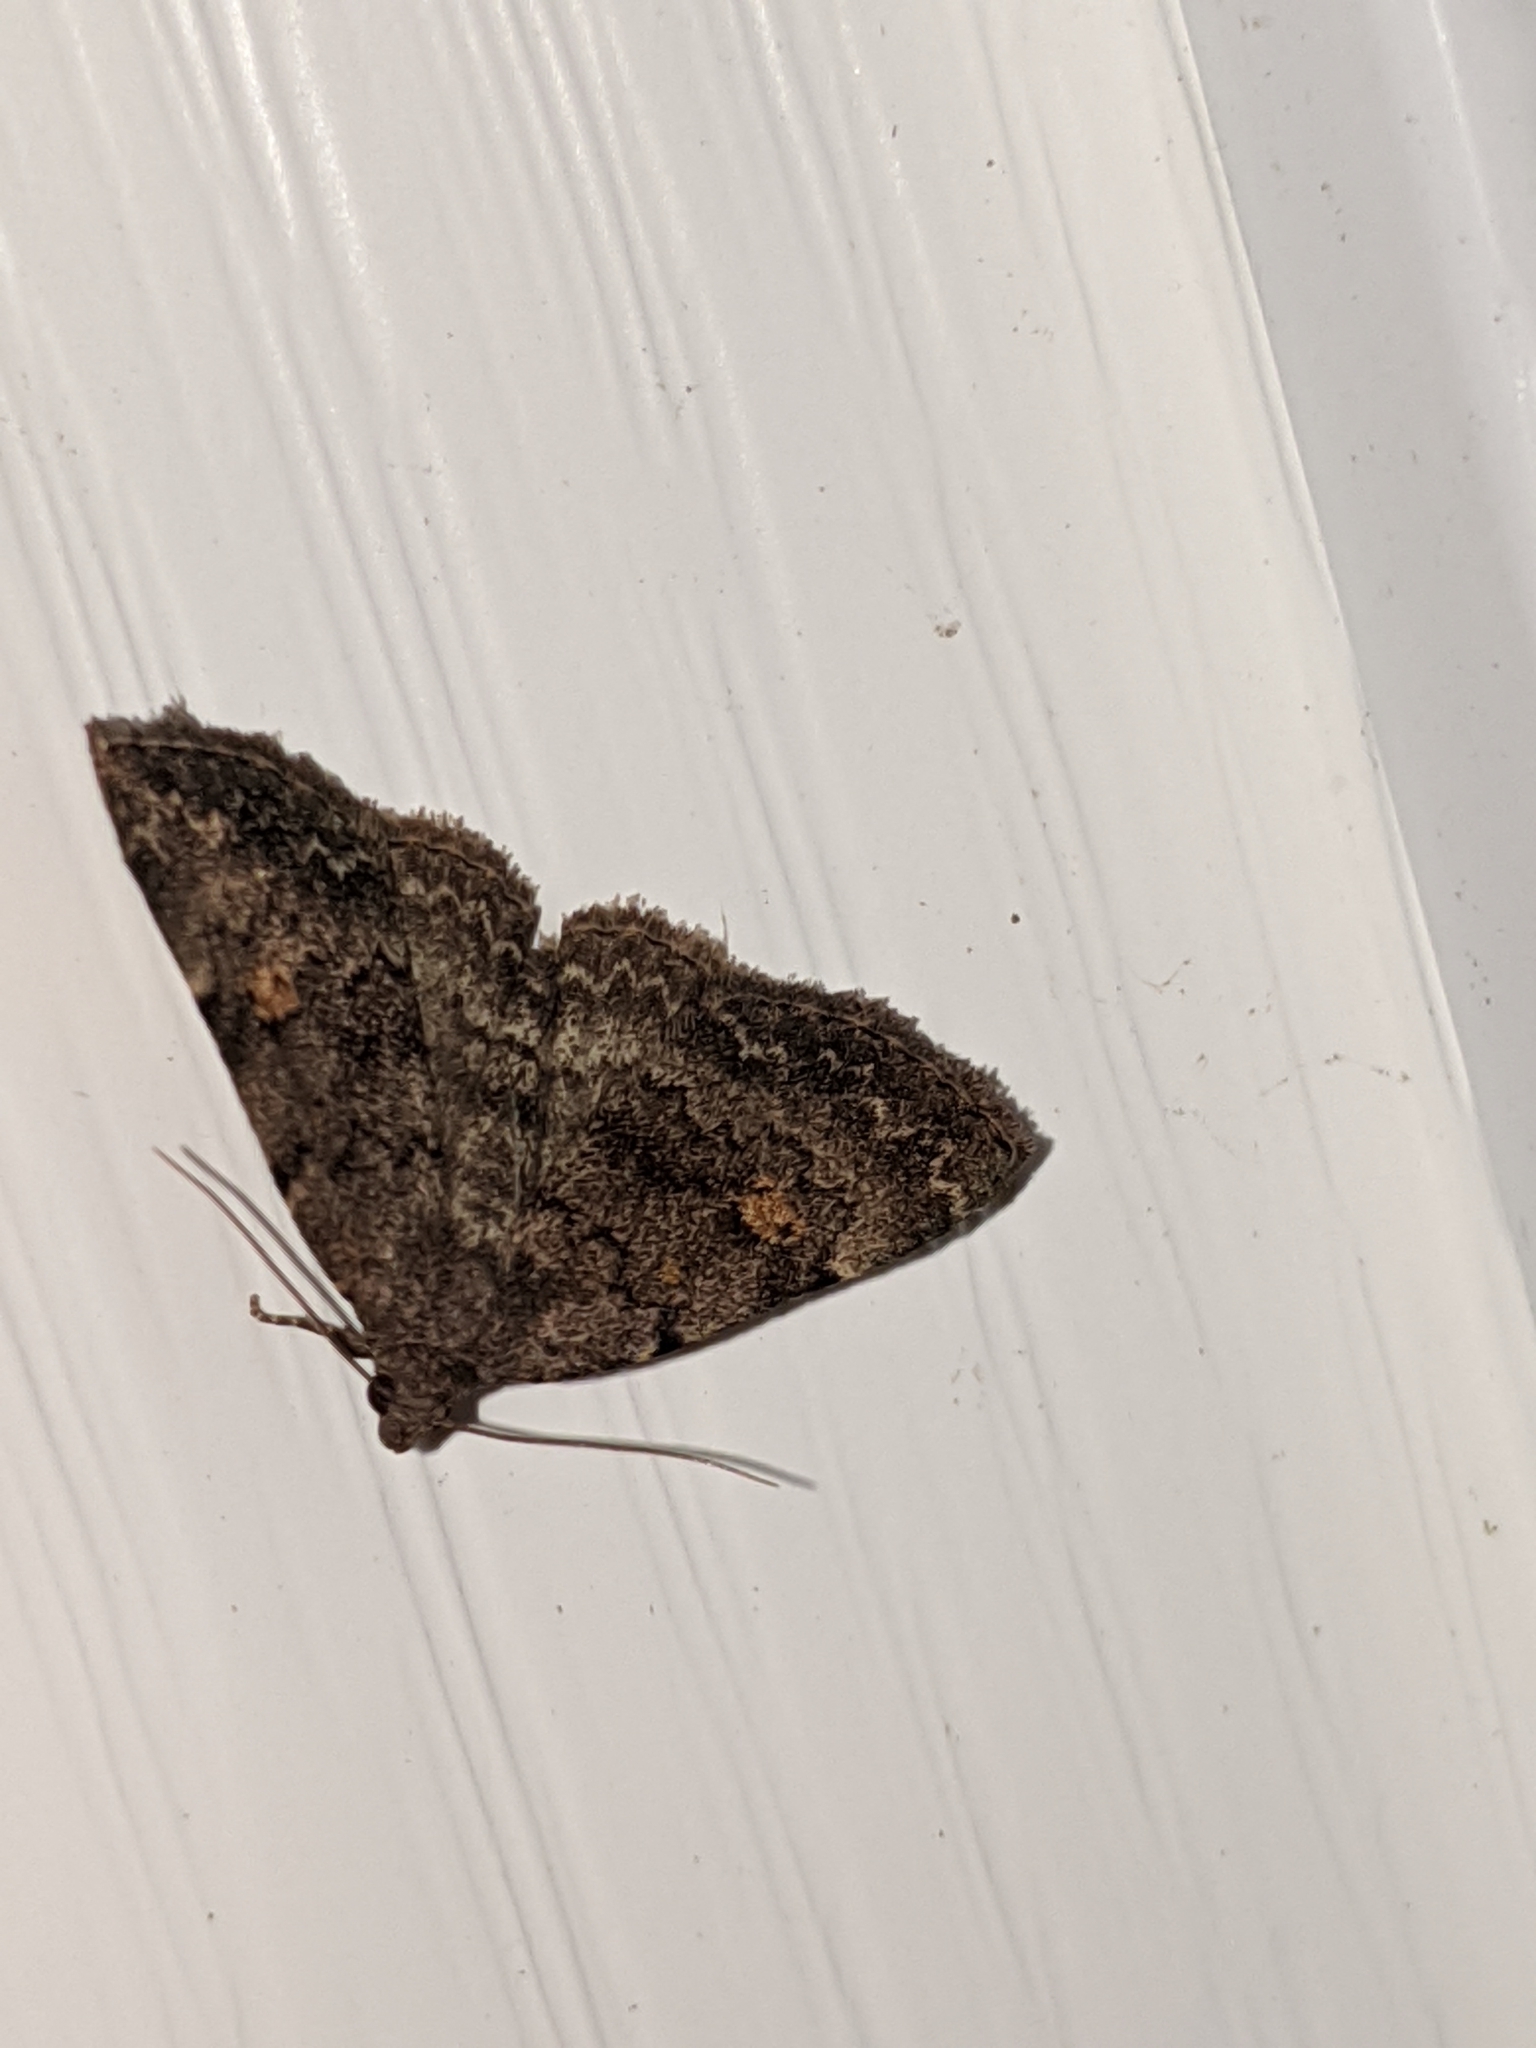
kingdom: Animalia
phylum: Arthropoda
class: Insecta
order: Lepidoptera
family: Erebidae
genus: Idia
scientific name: Idia aemula
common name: Common idia moth
